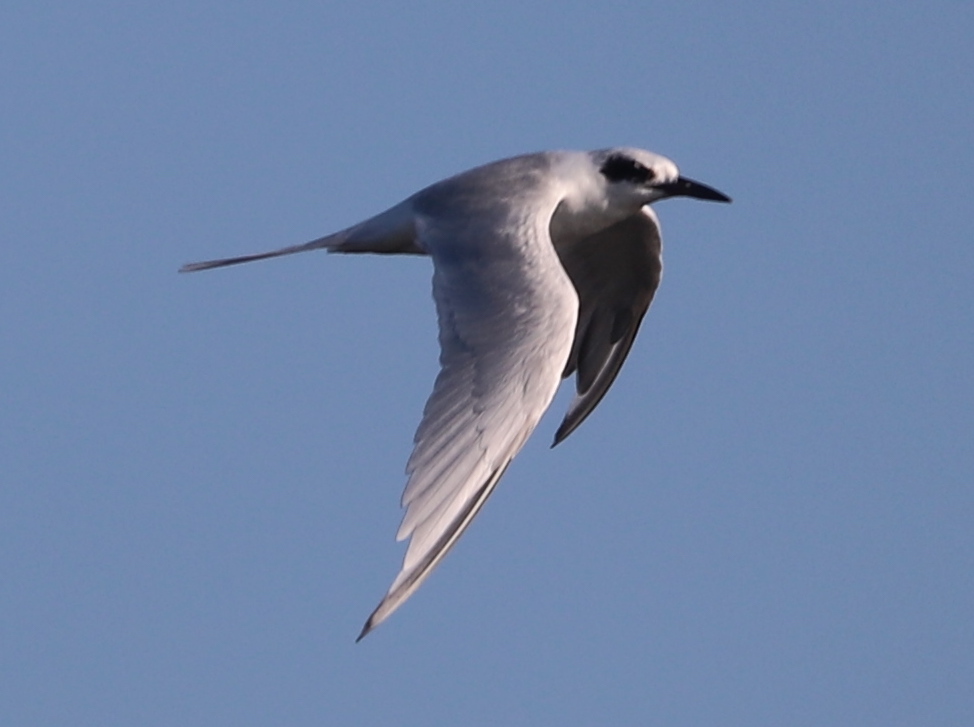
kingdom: Animalia
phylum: Chordata
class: Aves
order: Charadriiformes
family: Laridae
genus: Sterna
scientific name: Sterna forsteri
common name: Forster's tern
